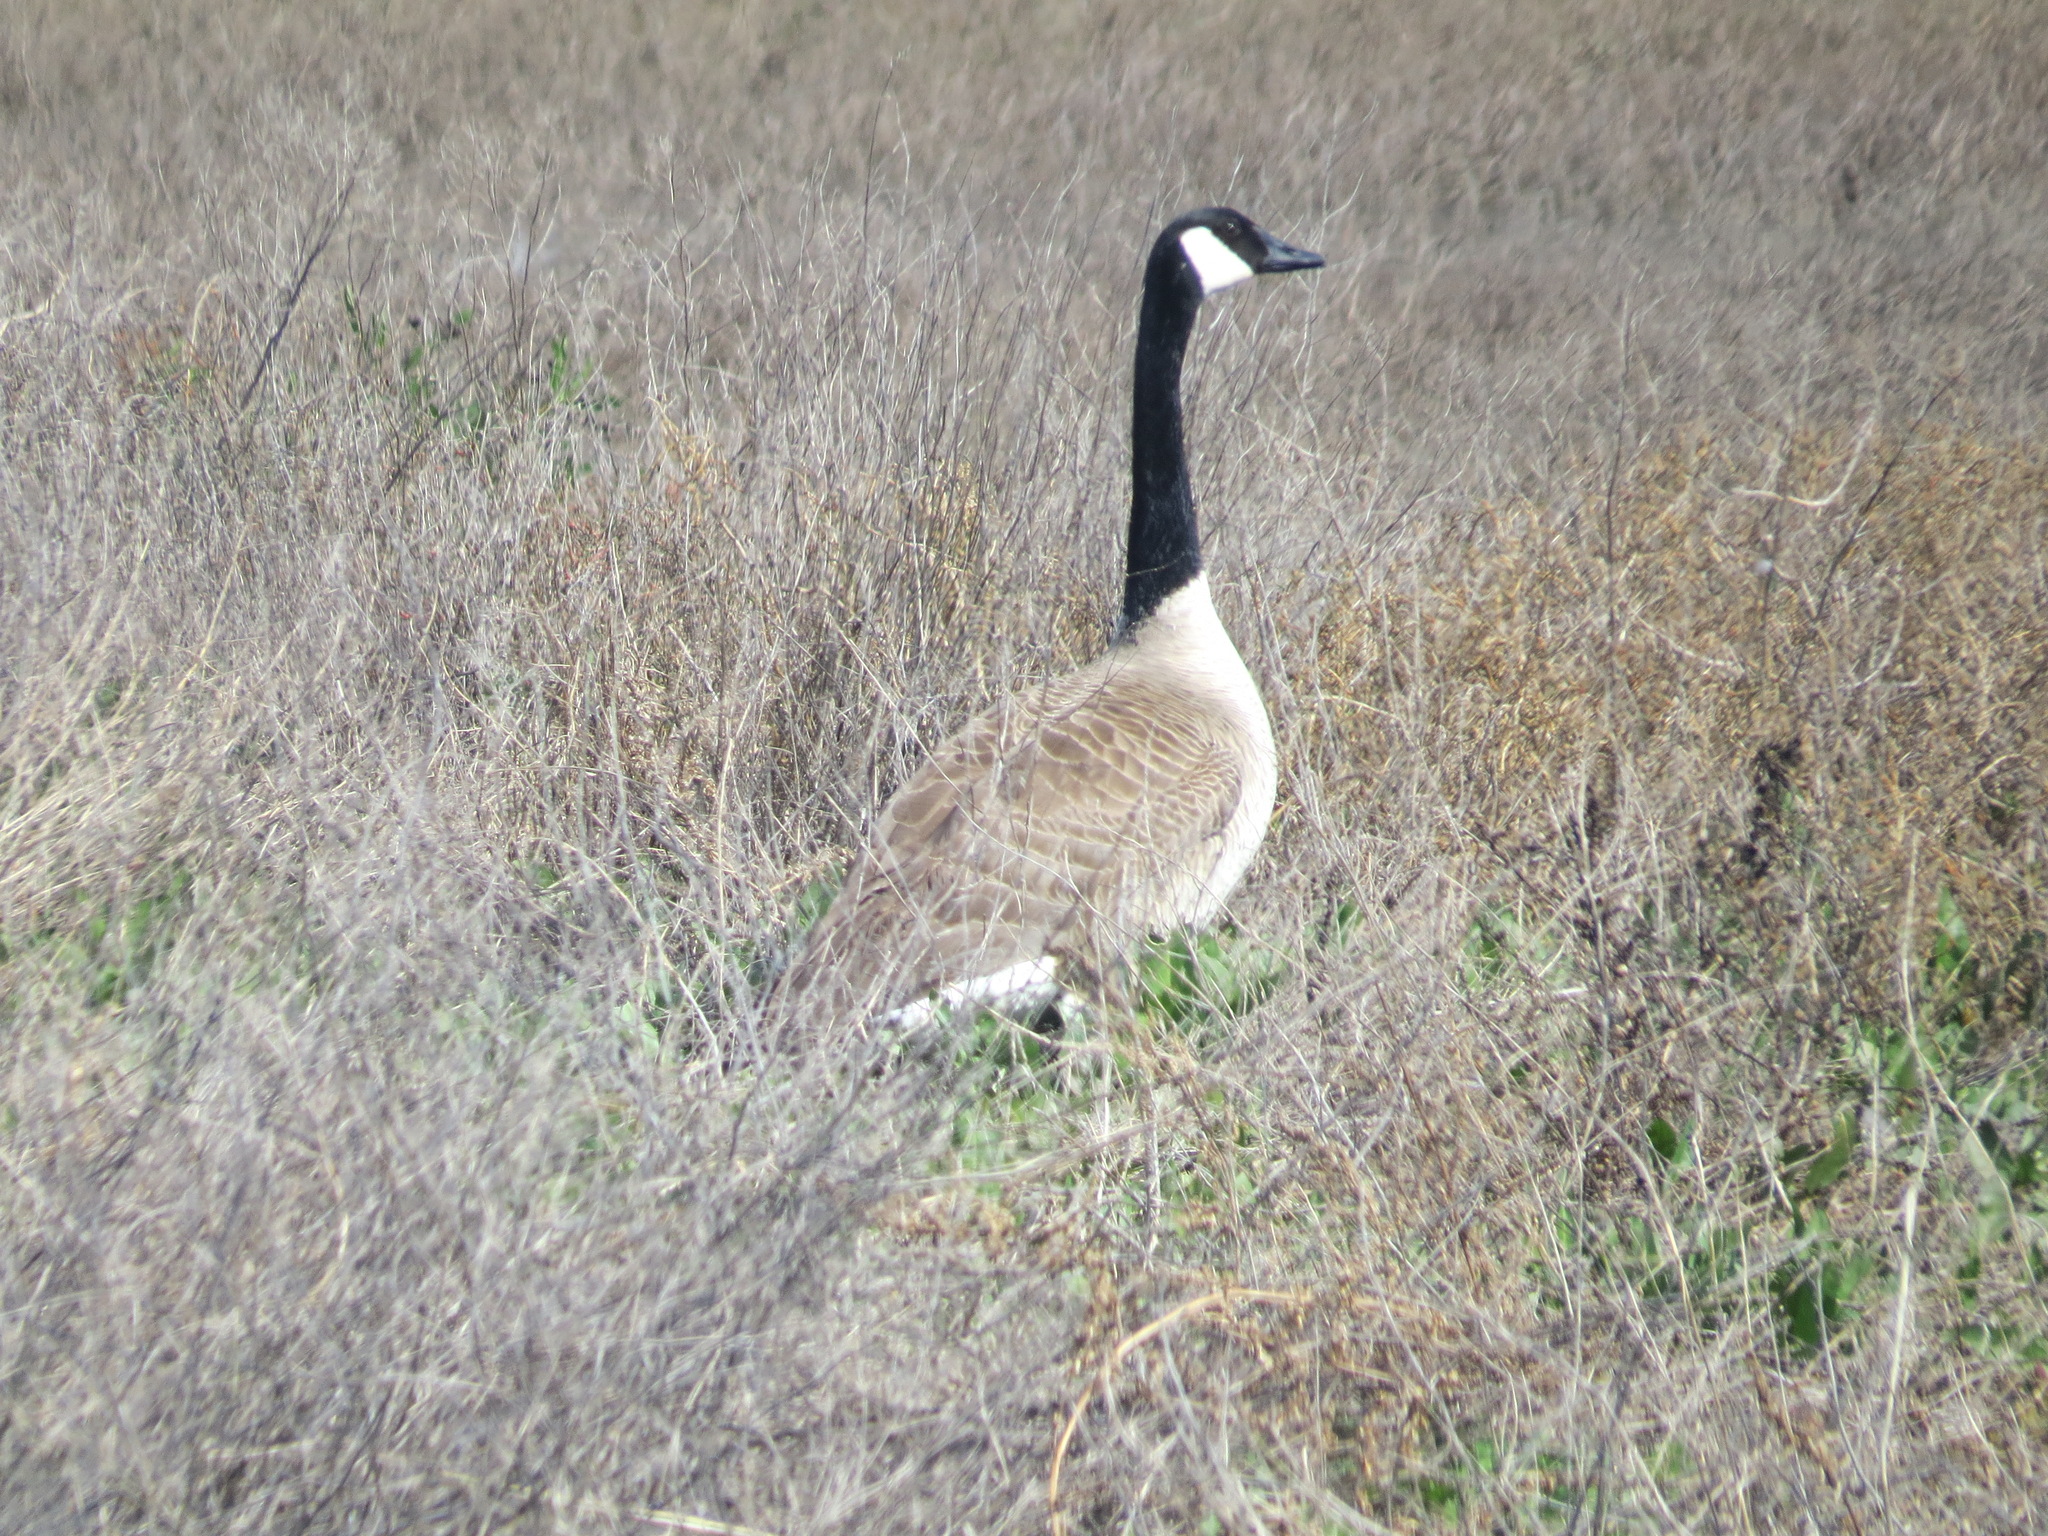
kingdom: Animalia
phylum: Chordata
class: Aves
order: Anseriformes
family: Anatidae
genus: Branta
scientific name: Branta canadensis
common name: Canada goose
